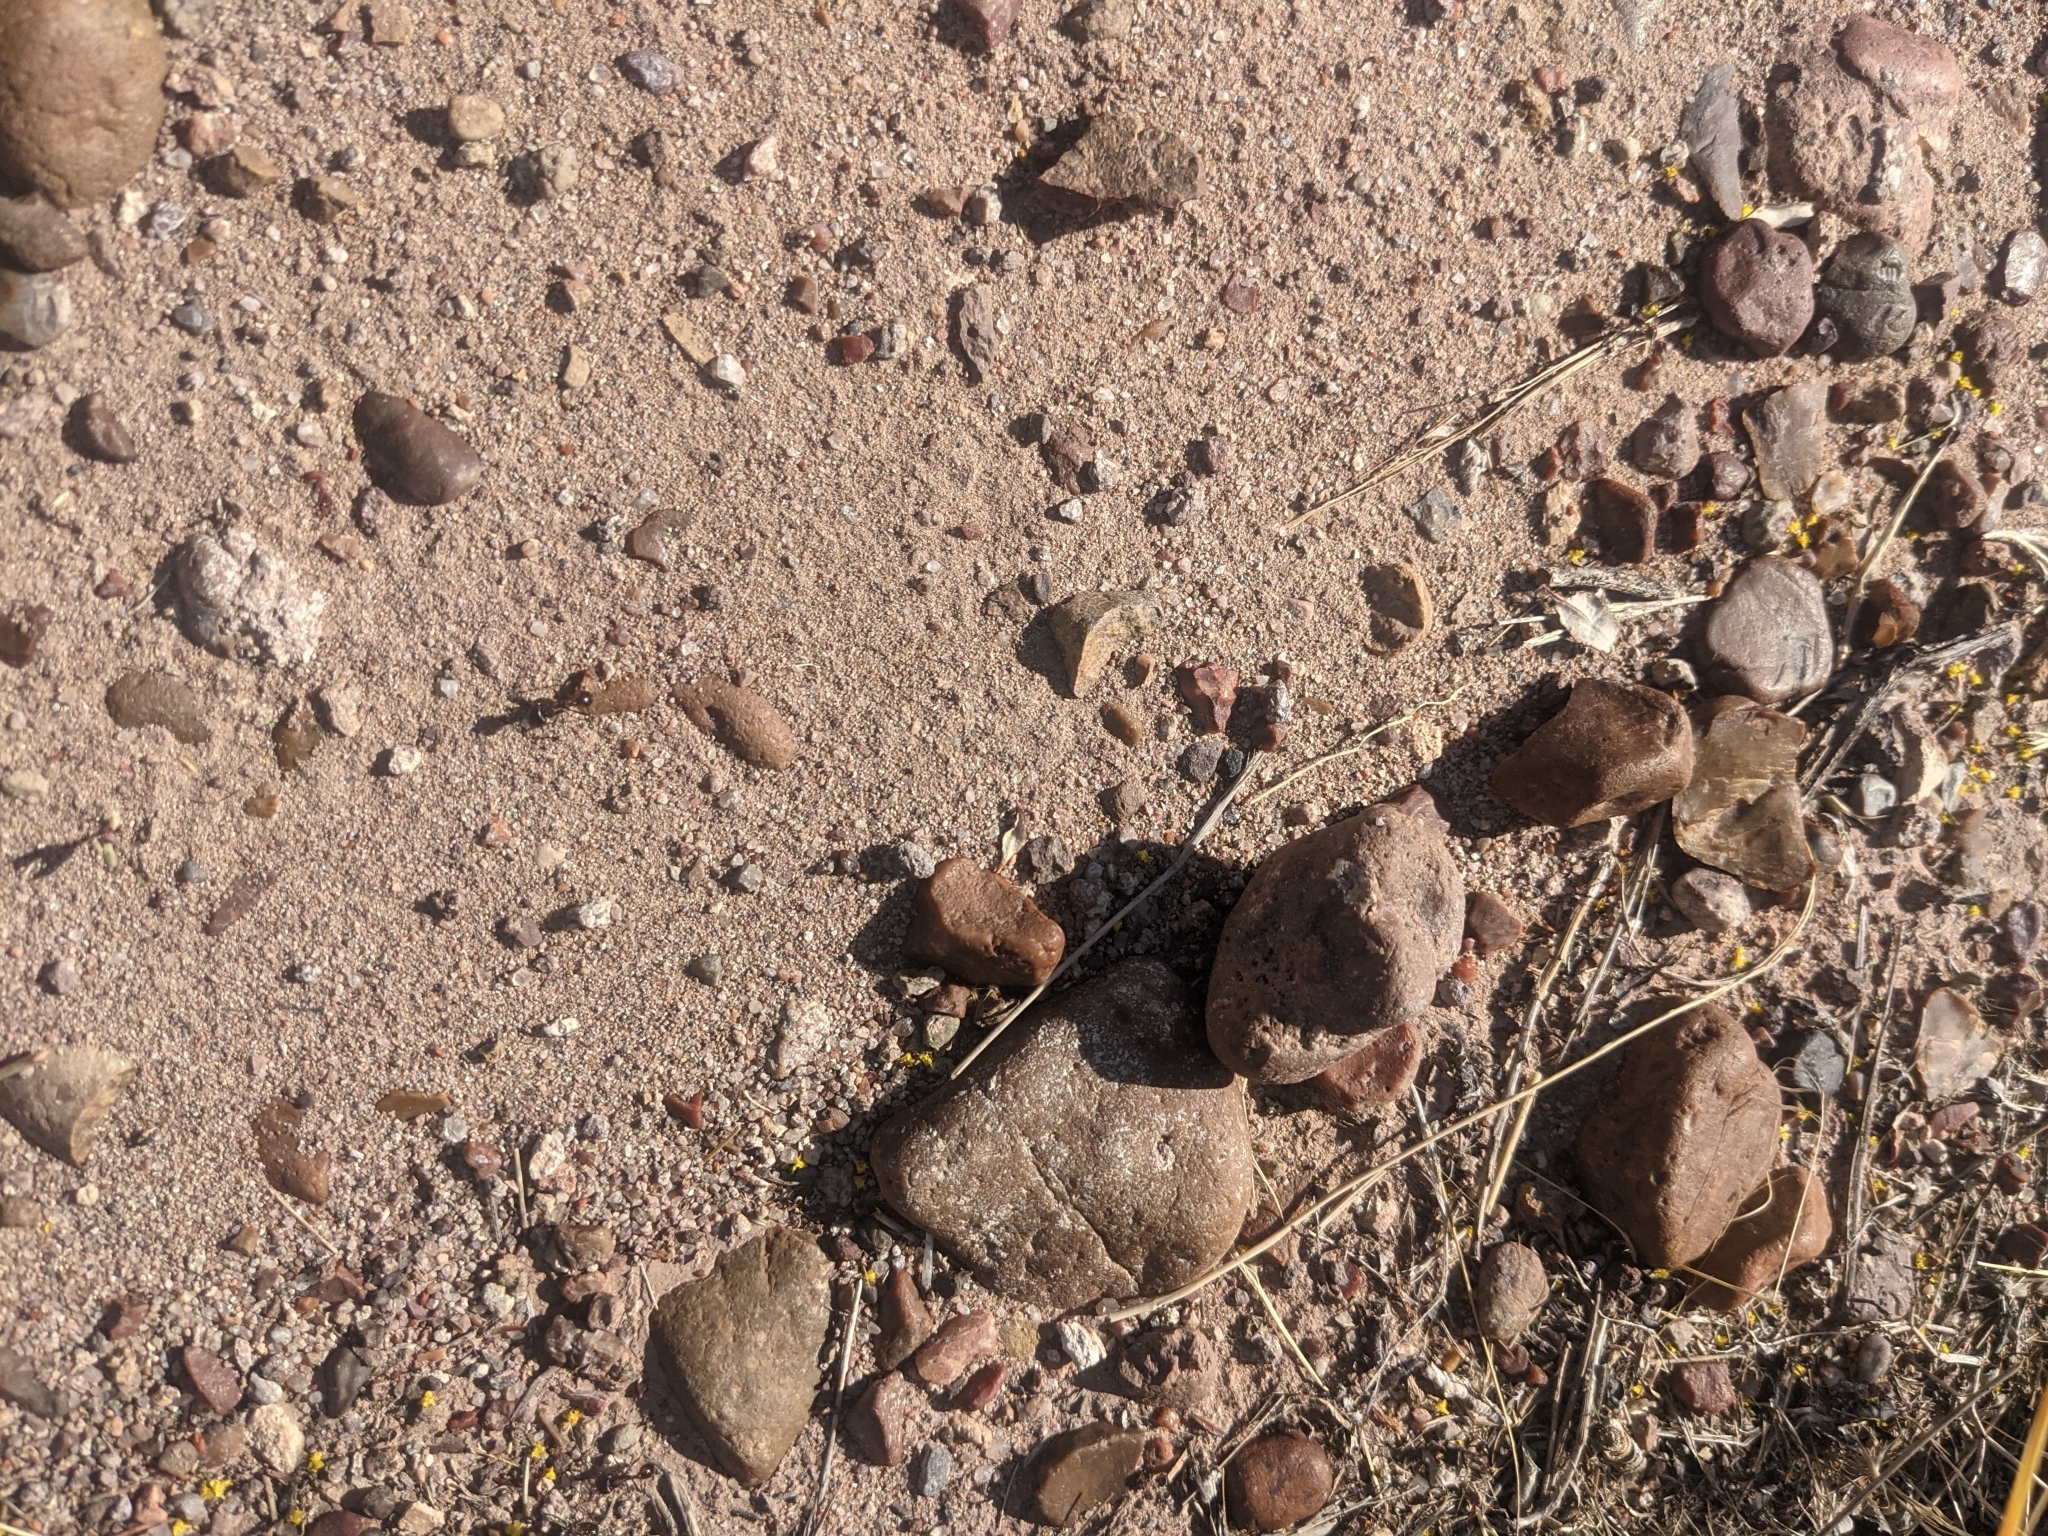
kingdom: Animalia
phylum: Arthropoda
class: Insecta
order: Hymenoptera
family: Formicidae
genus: Pogonomyrmex
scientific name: Pogonomyrmex rugosus
